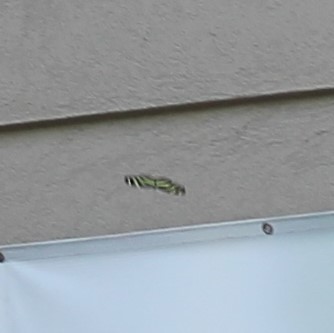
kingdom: Animalia
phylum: Arthropoda
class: Insecta
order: Lepidoptera
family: Nymphalidae
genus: Heliconius
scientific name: Heliconius charithonia
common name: Zebra long wing
